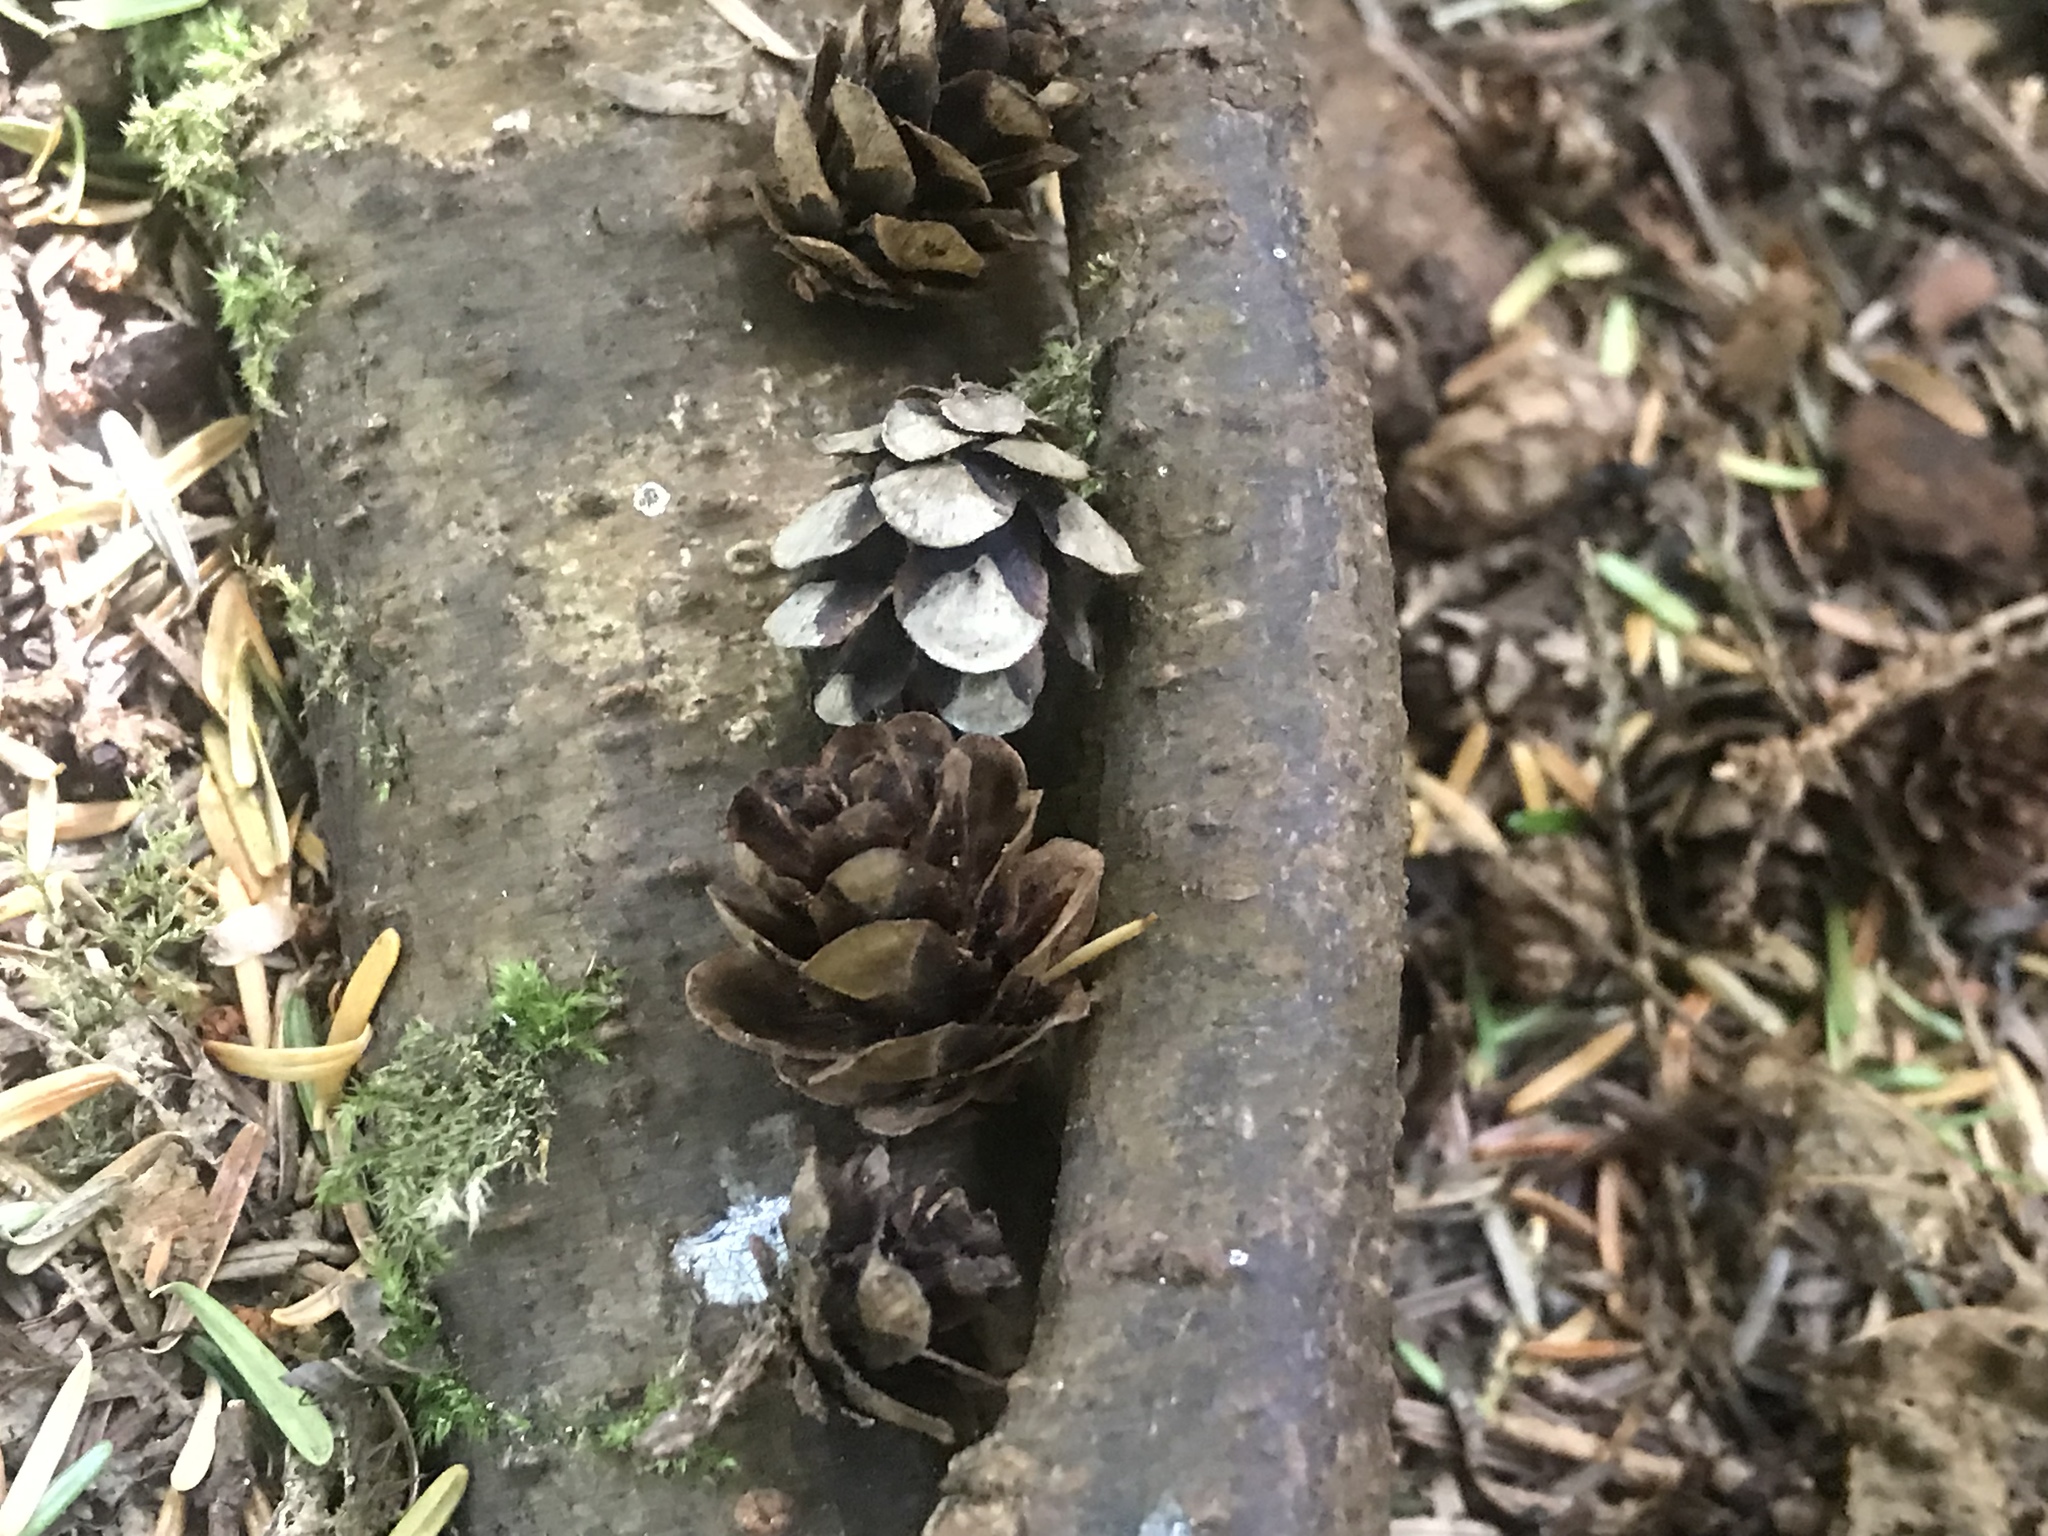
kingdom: Plantae
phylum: Tracheophyta
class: Pinopsida
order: Pinales
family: Pinaceae
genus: Tsuga
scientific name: Tsuga heterophylla
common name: Western hemlock
